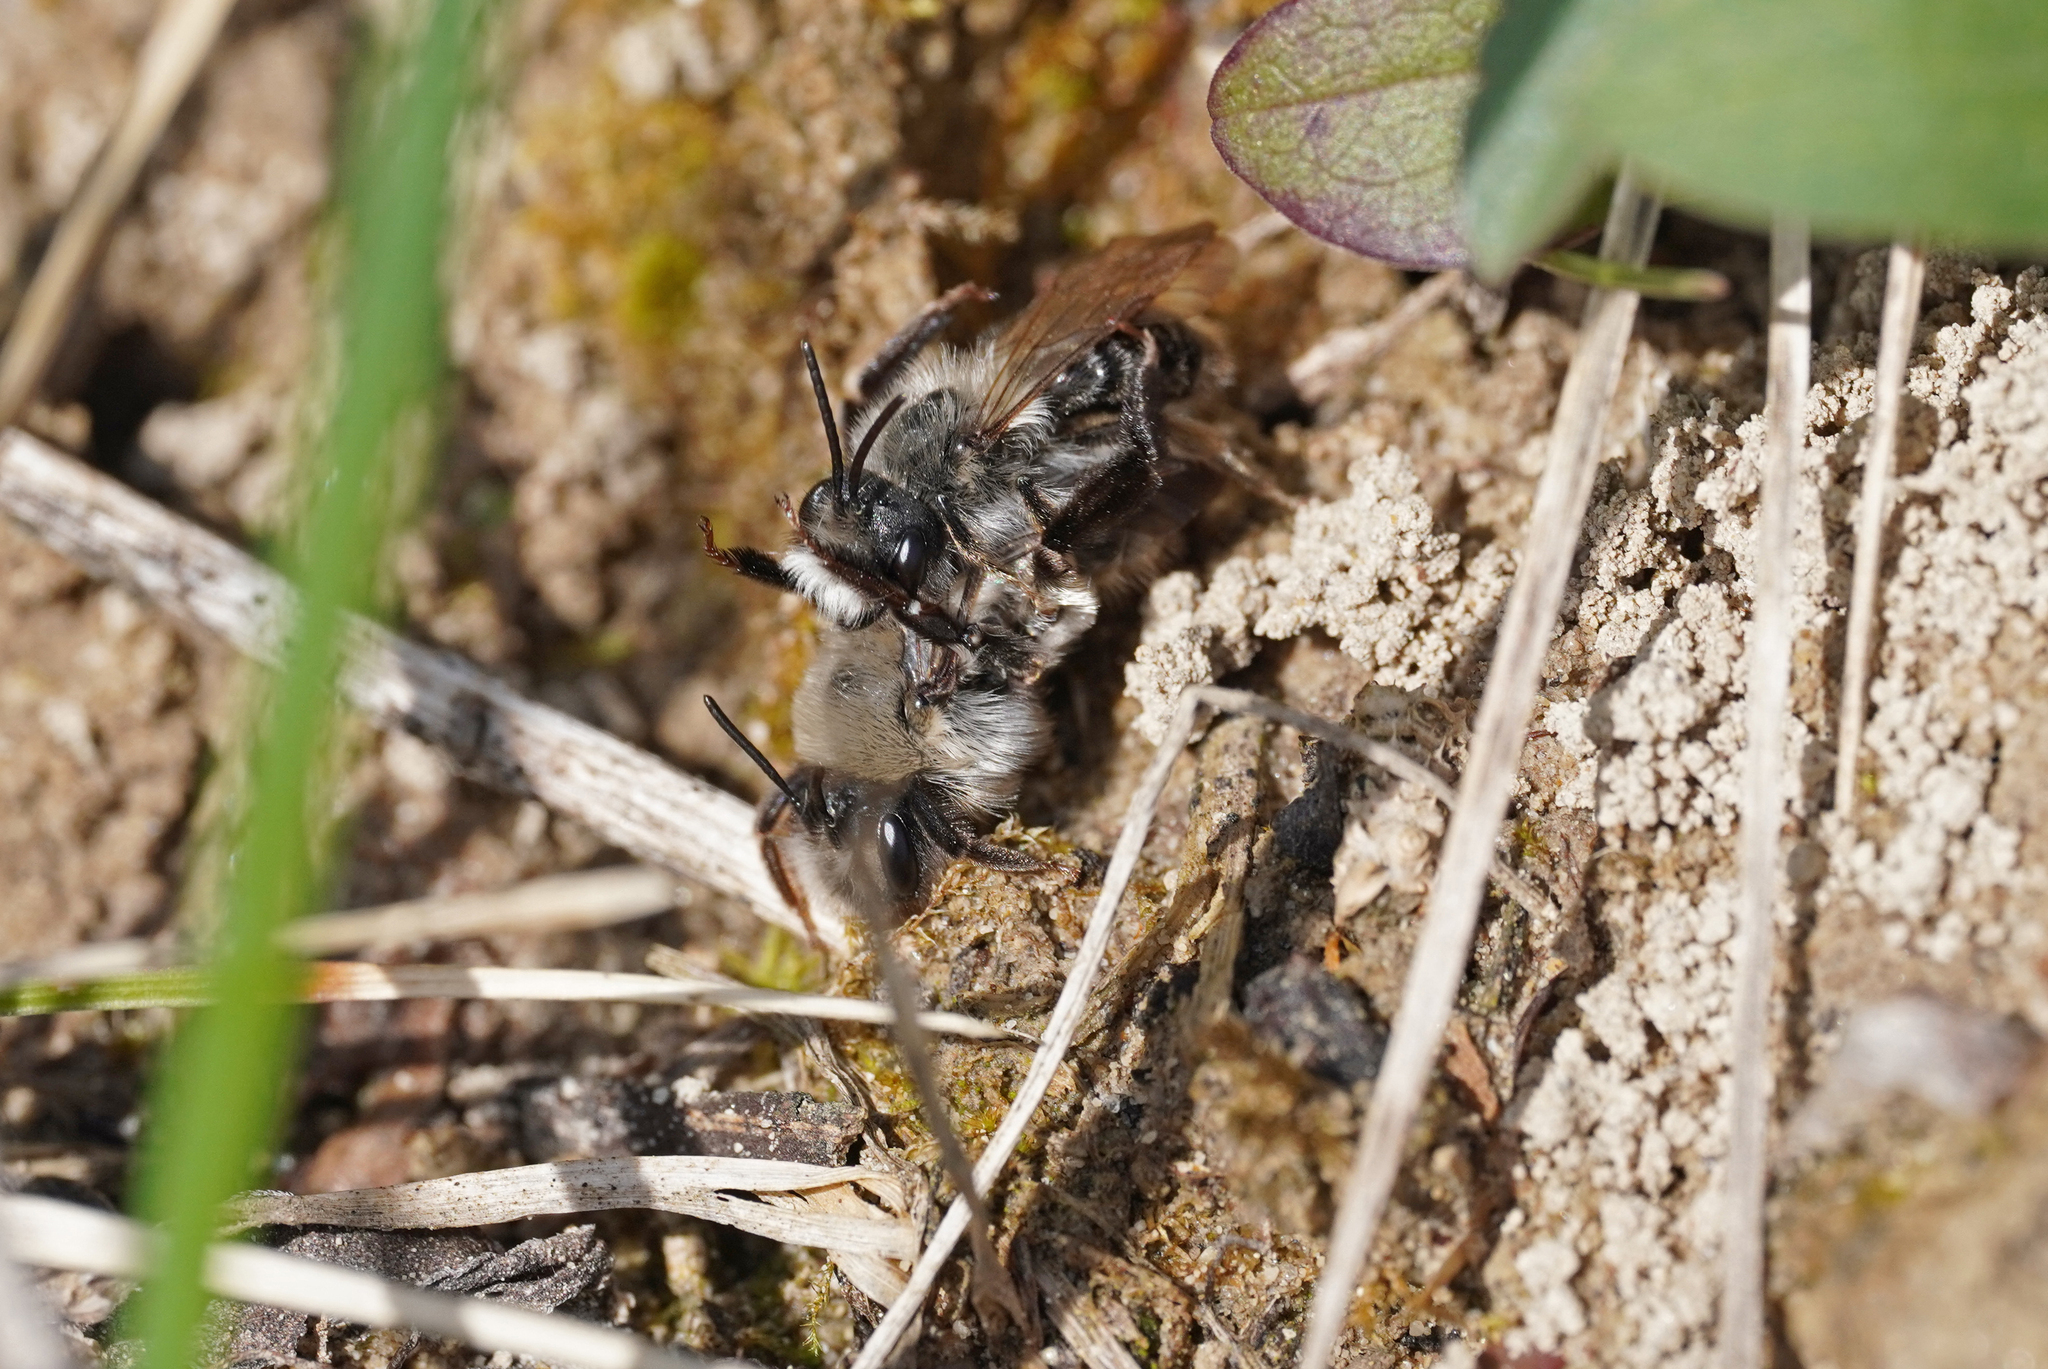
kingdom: Animalia
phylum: Arthropoda
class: Insecta
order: Hymenoptera
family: Andrenidae
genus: Andrena
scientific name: Andrena vaga
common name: Grey-backed mining bee
